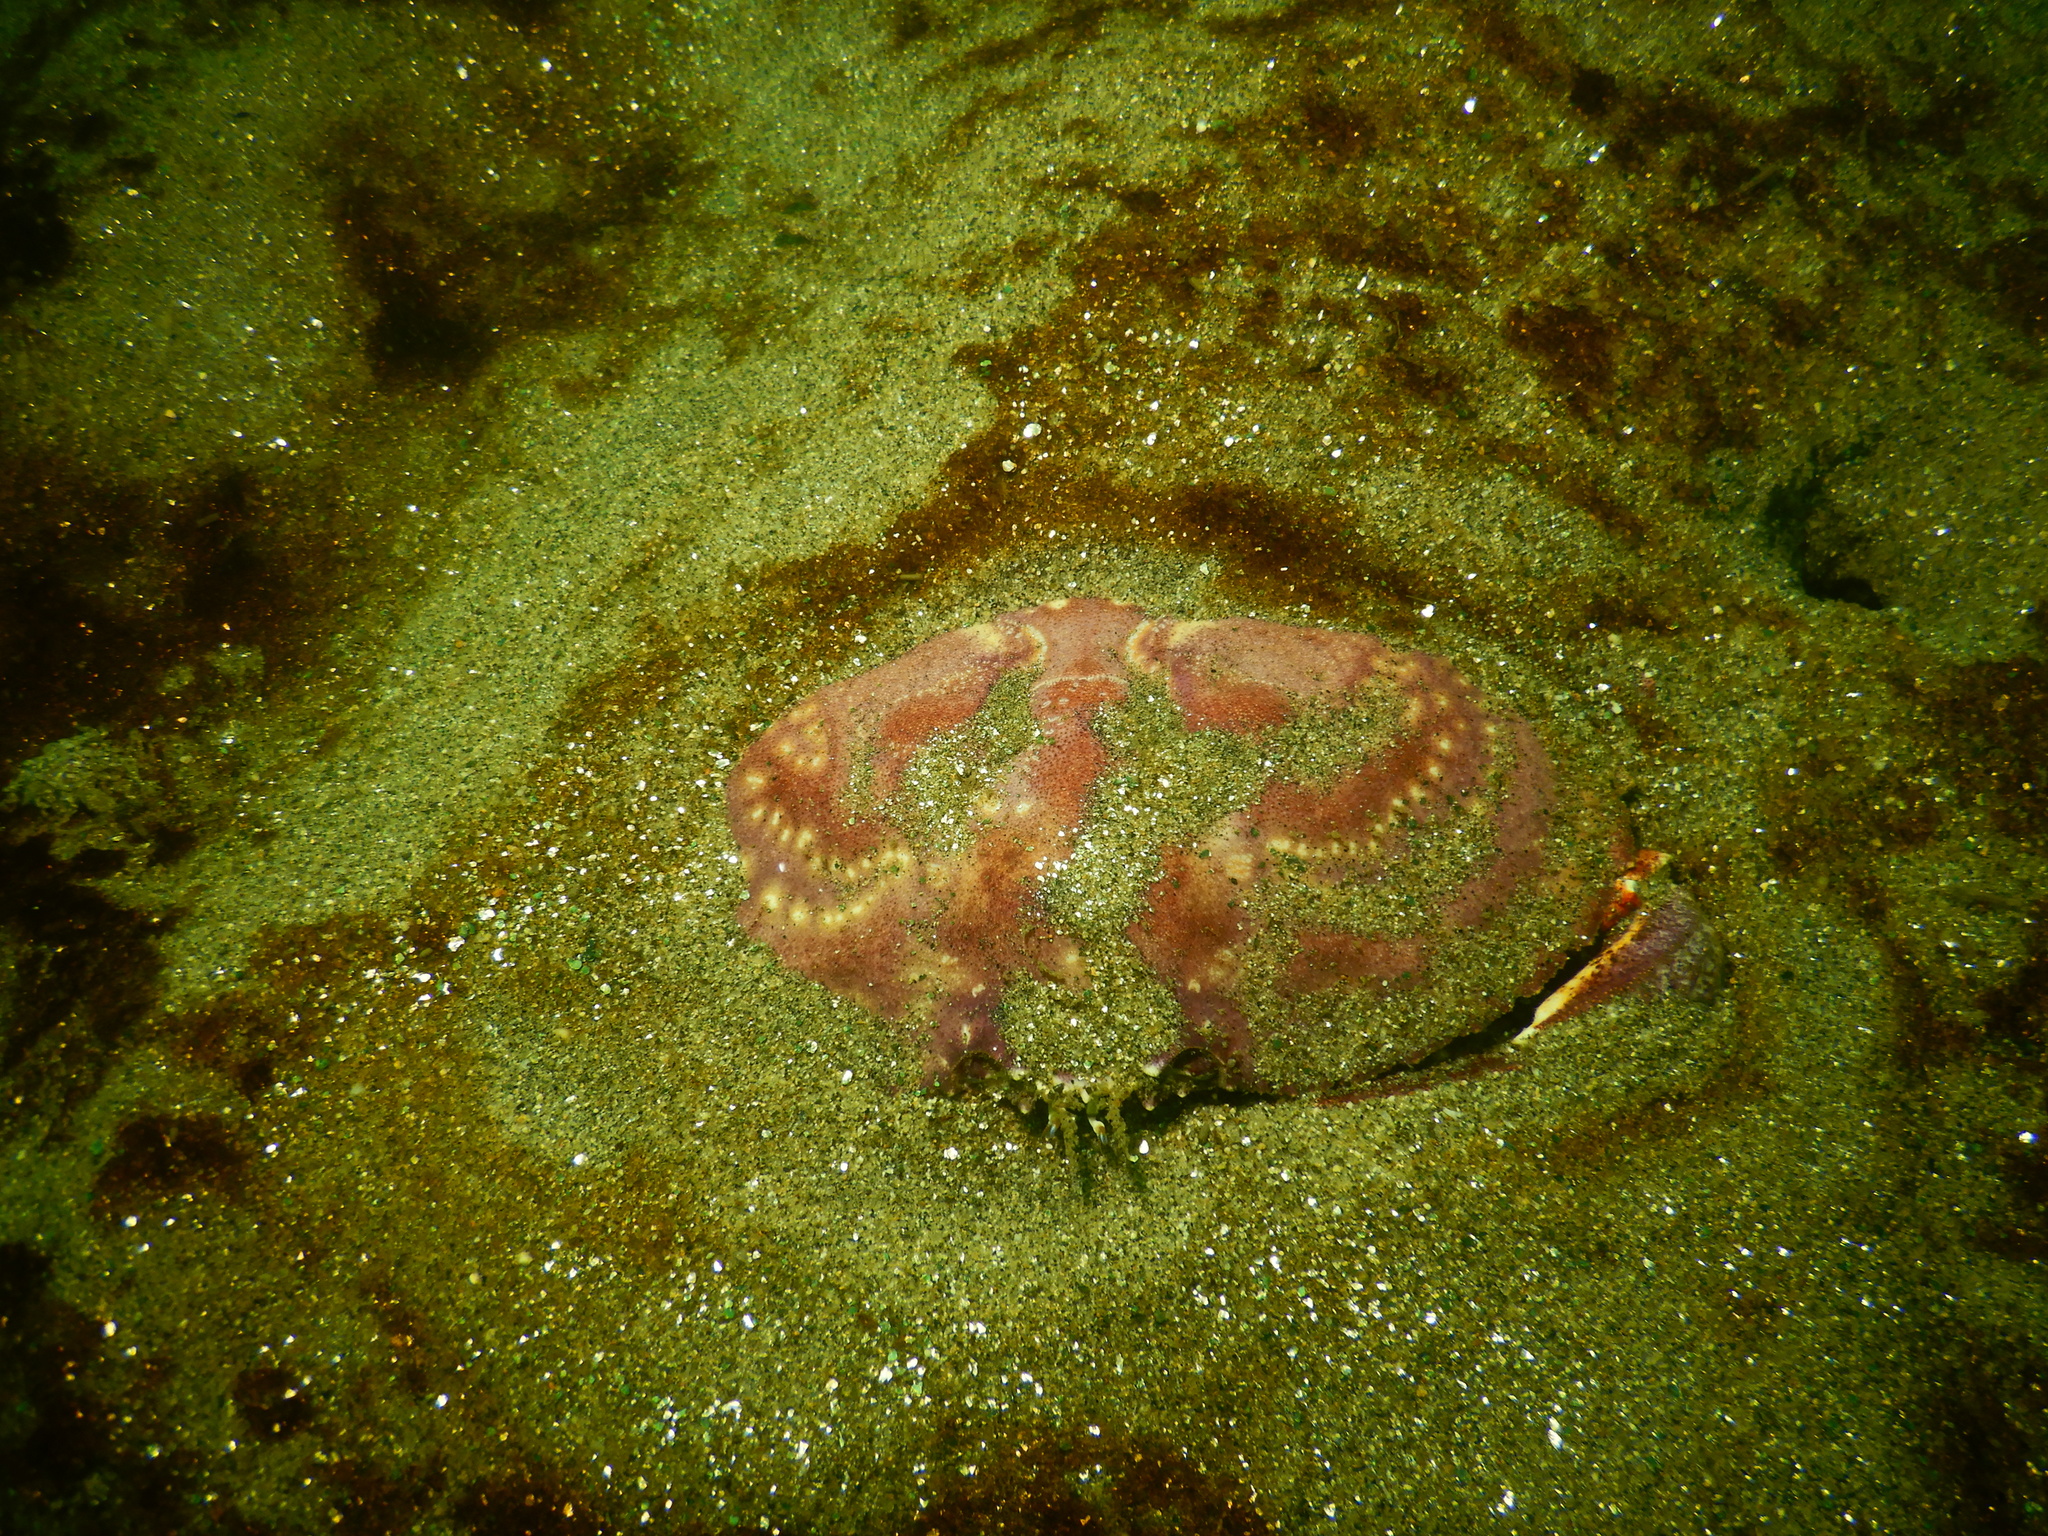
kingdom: Animalia
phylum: Arthropoda
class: Malacostraca
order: Decapoda
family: Cancridae
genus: Cancer
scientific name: Cancer plebejus
